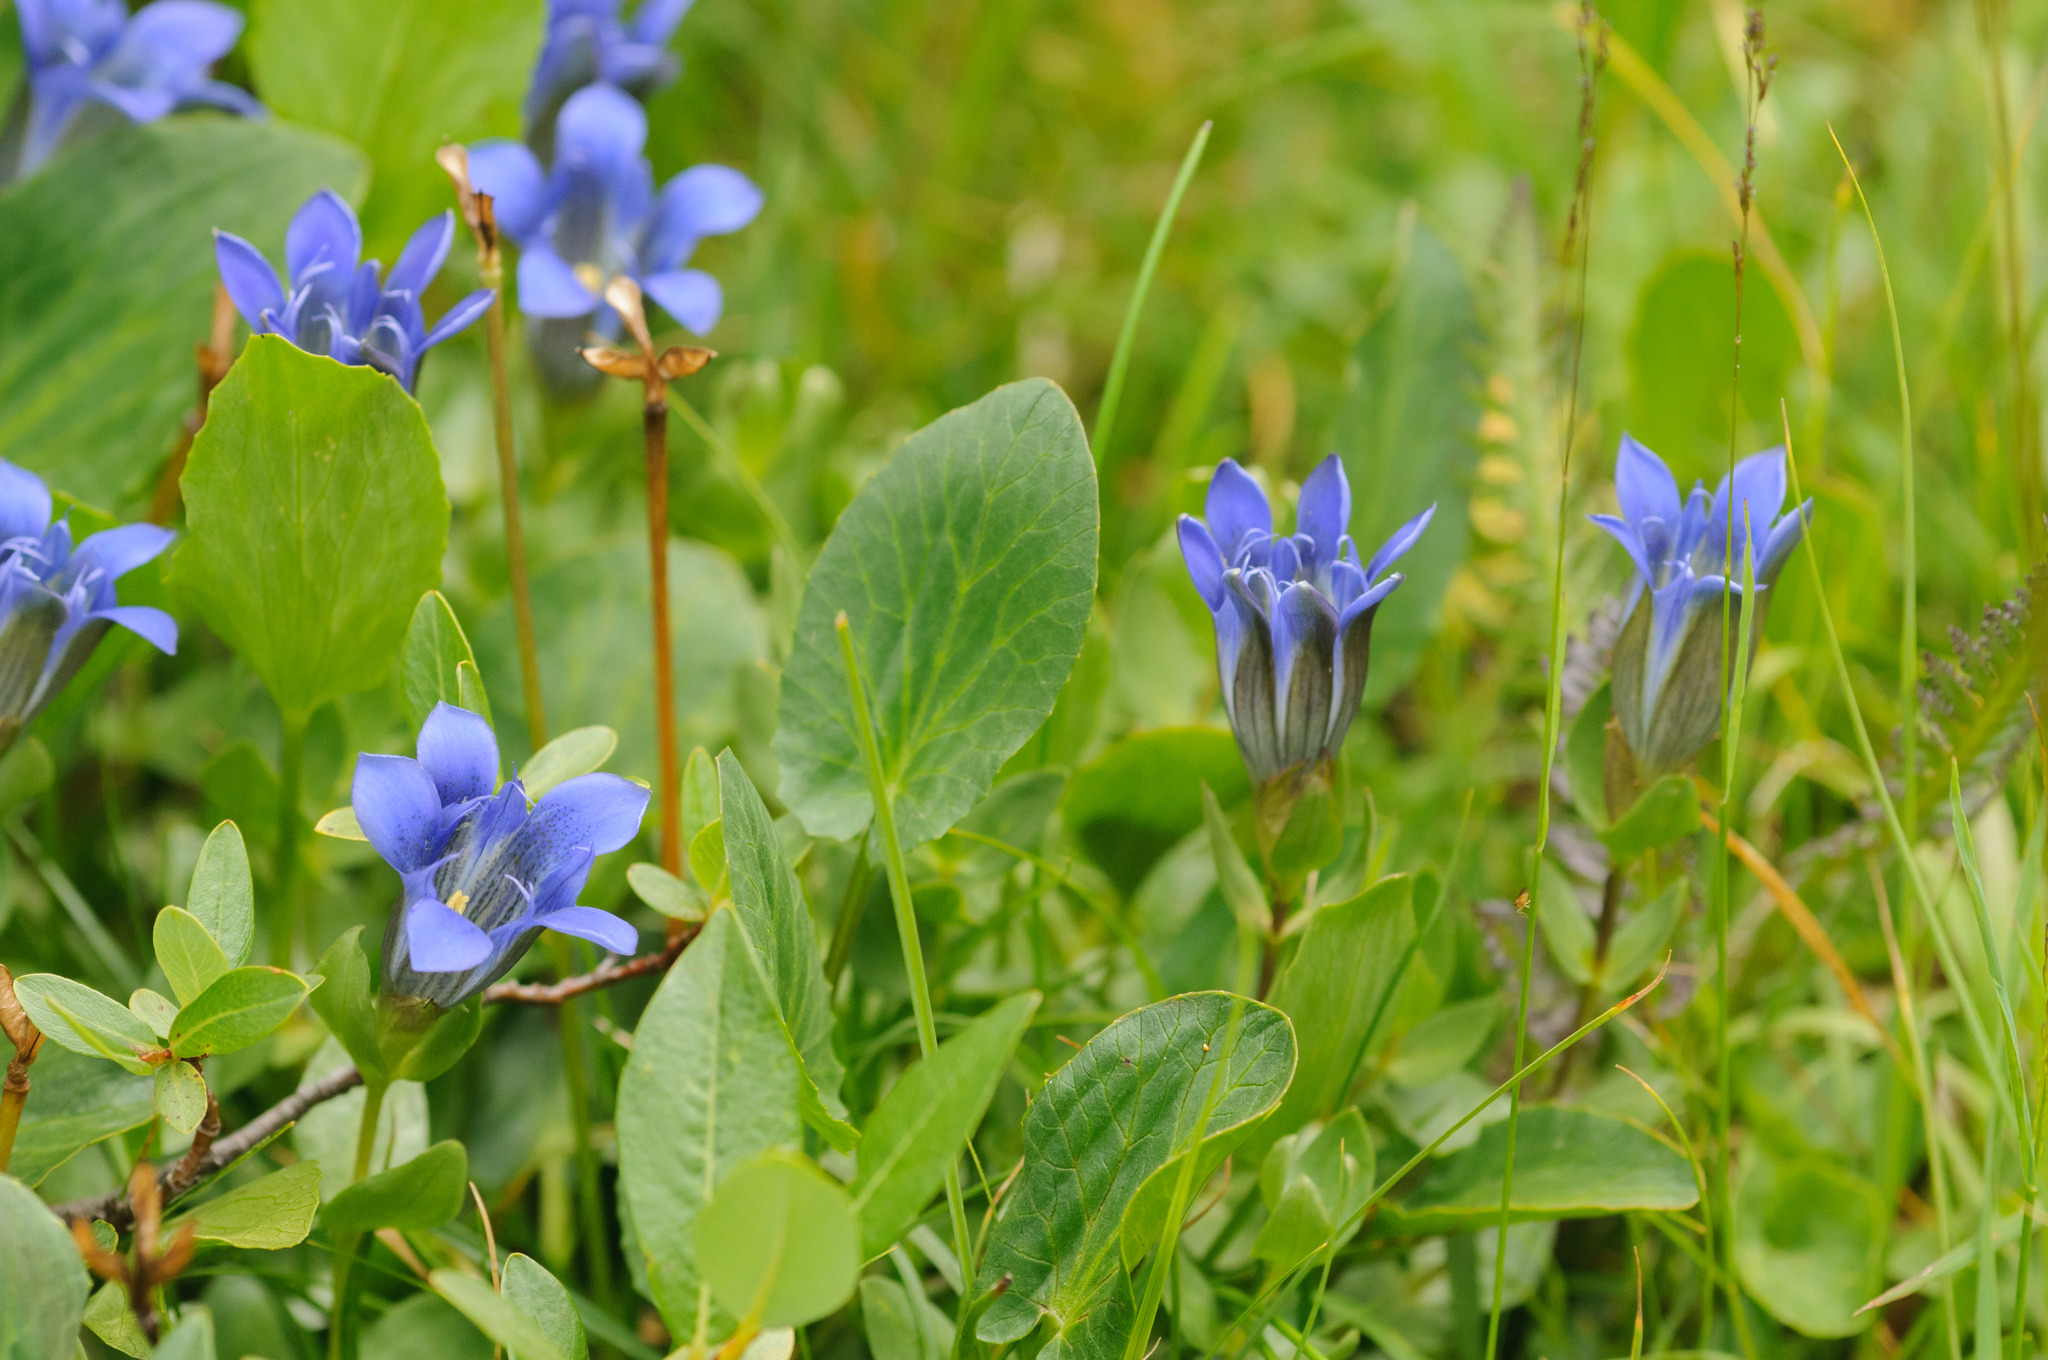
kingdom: Plantae
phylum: Tracheophyta
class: Magnoliopsida
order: Gentianales
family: Gentianaceae
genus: Gentiana
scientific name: Gentiana calycosa
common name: Rainier pleated gentian
